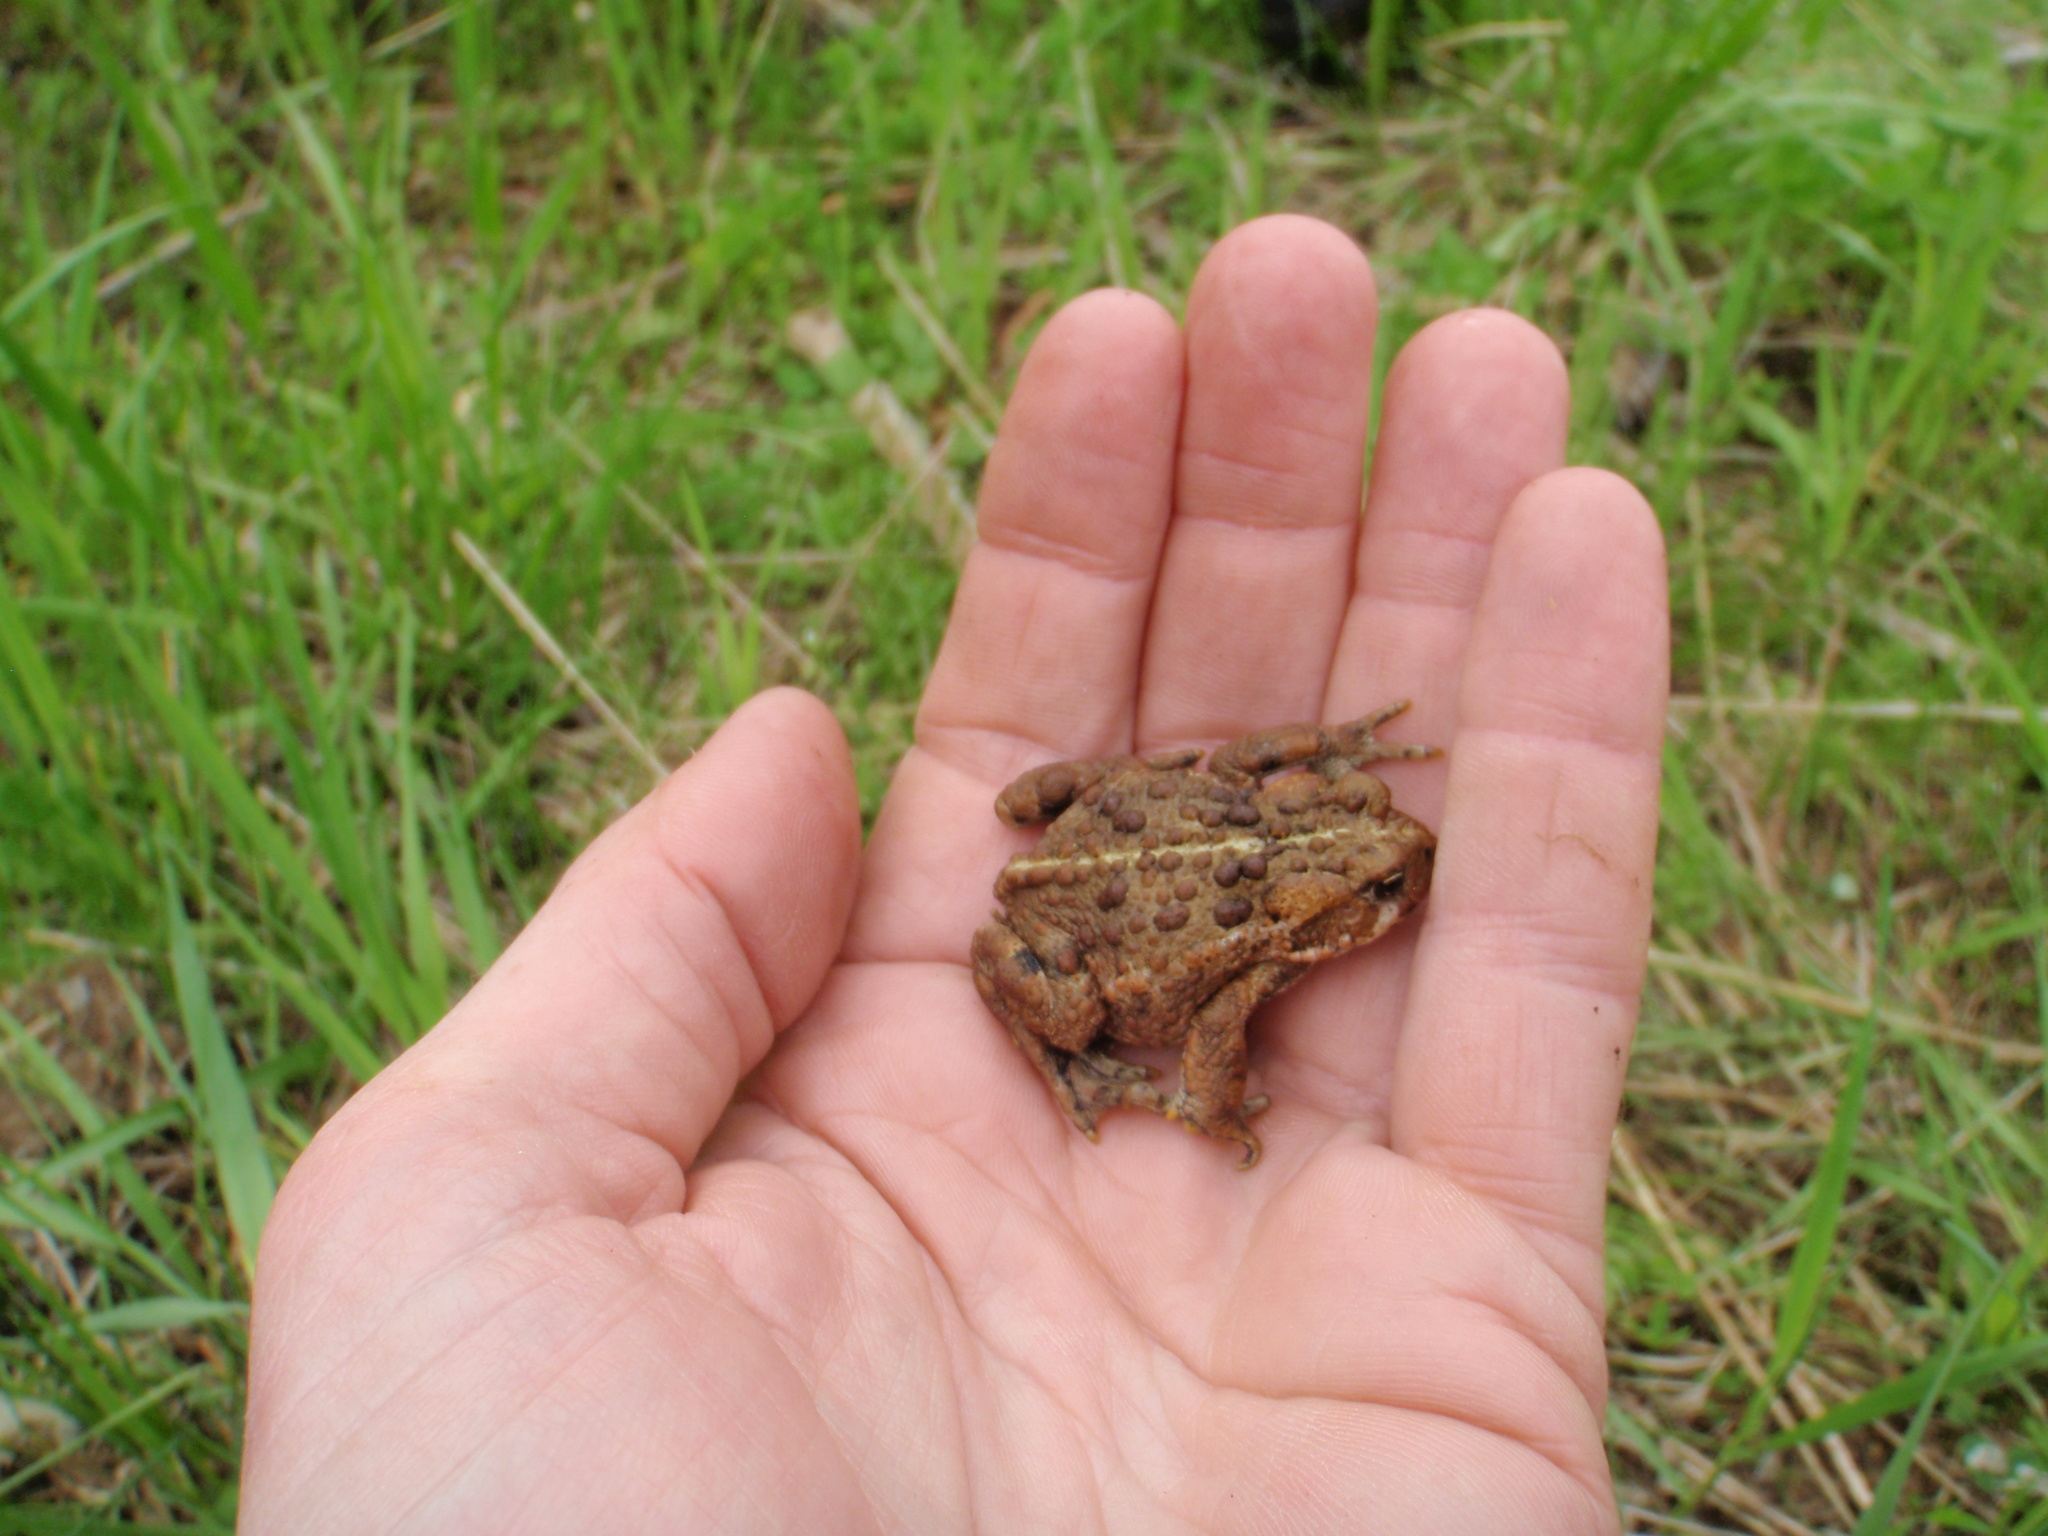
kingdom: Animalia
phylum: Chordata
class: Amphibia
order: Anura
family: Bufonidae
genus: Anaxyrus
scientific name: Anaxyrus boreas
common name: Western toad
